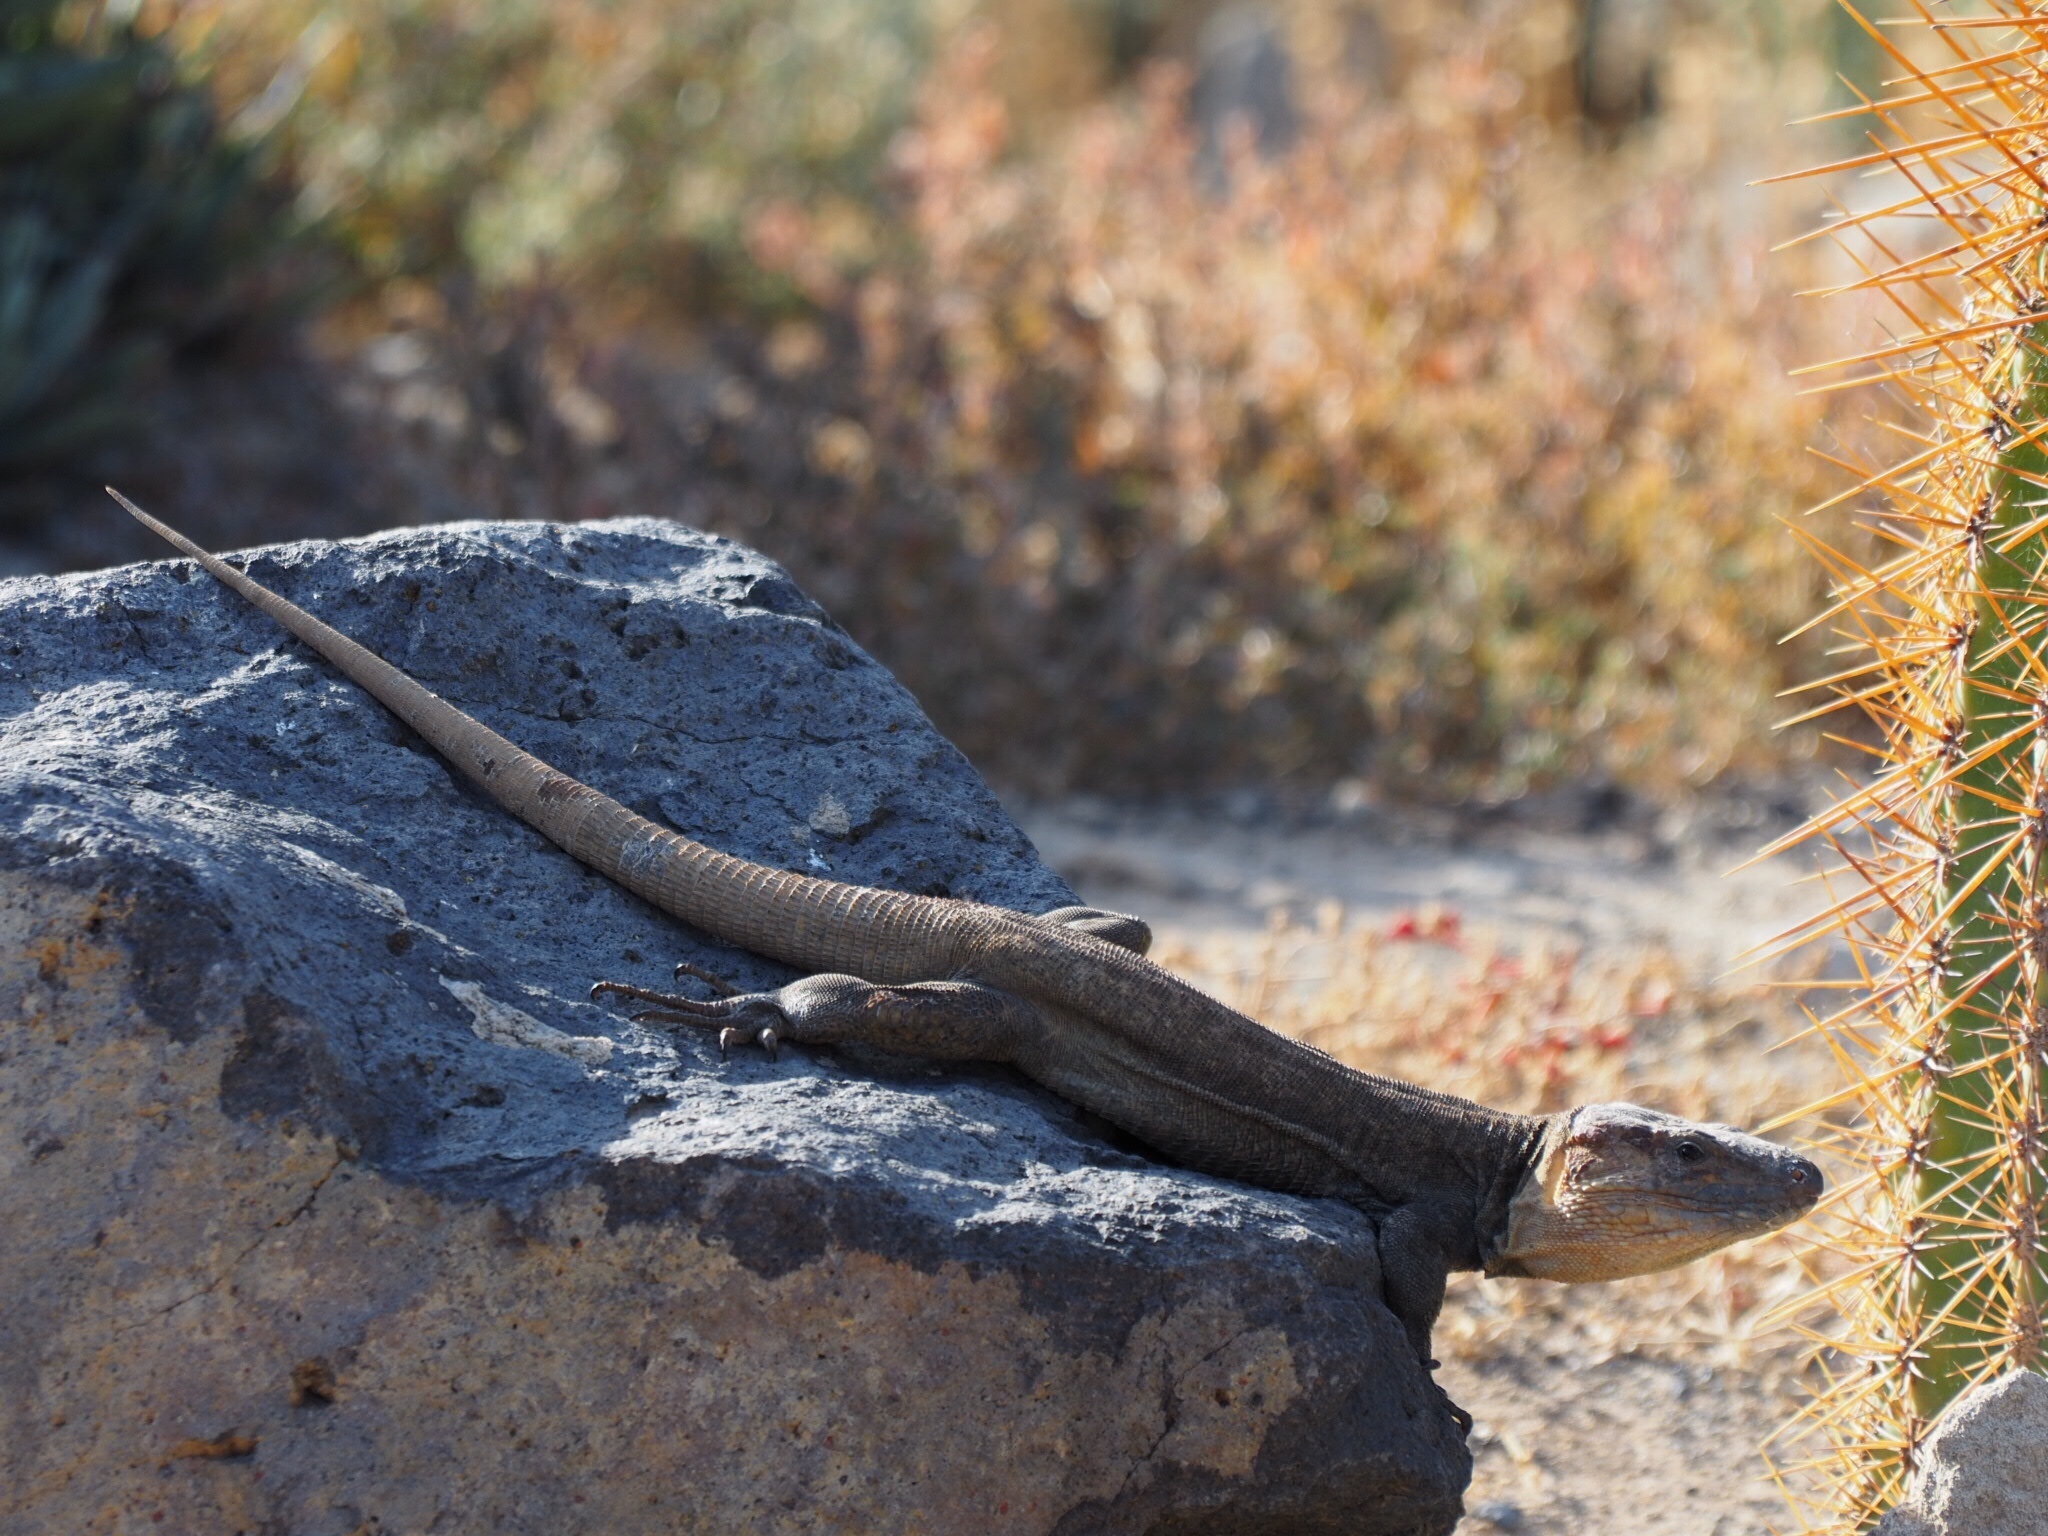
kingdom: Animalia
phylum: Chordata
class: Squamata
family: Lacertidae
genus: Gallotia
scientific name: Gallotia stehlini
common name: Gran canaria giant lizard
